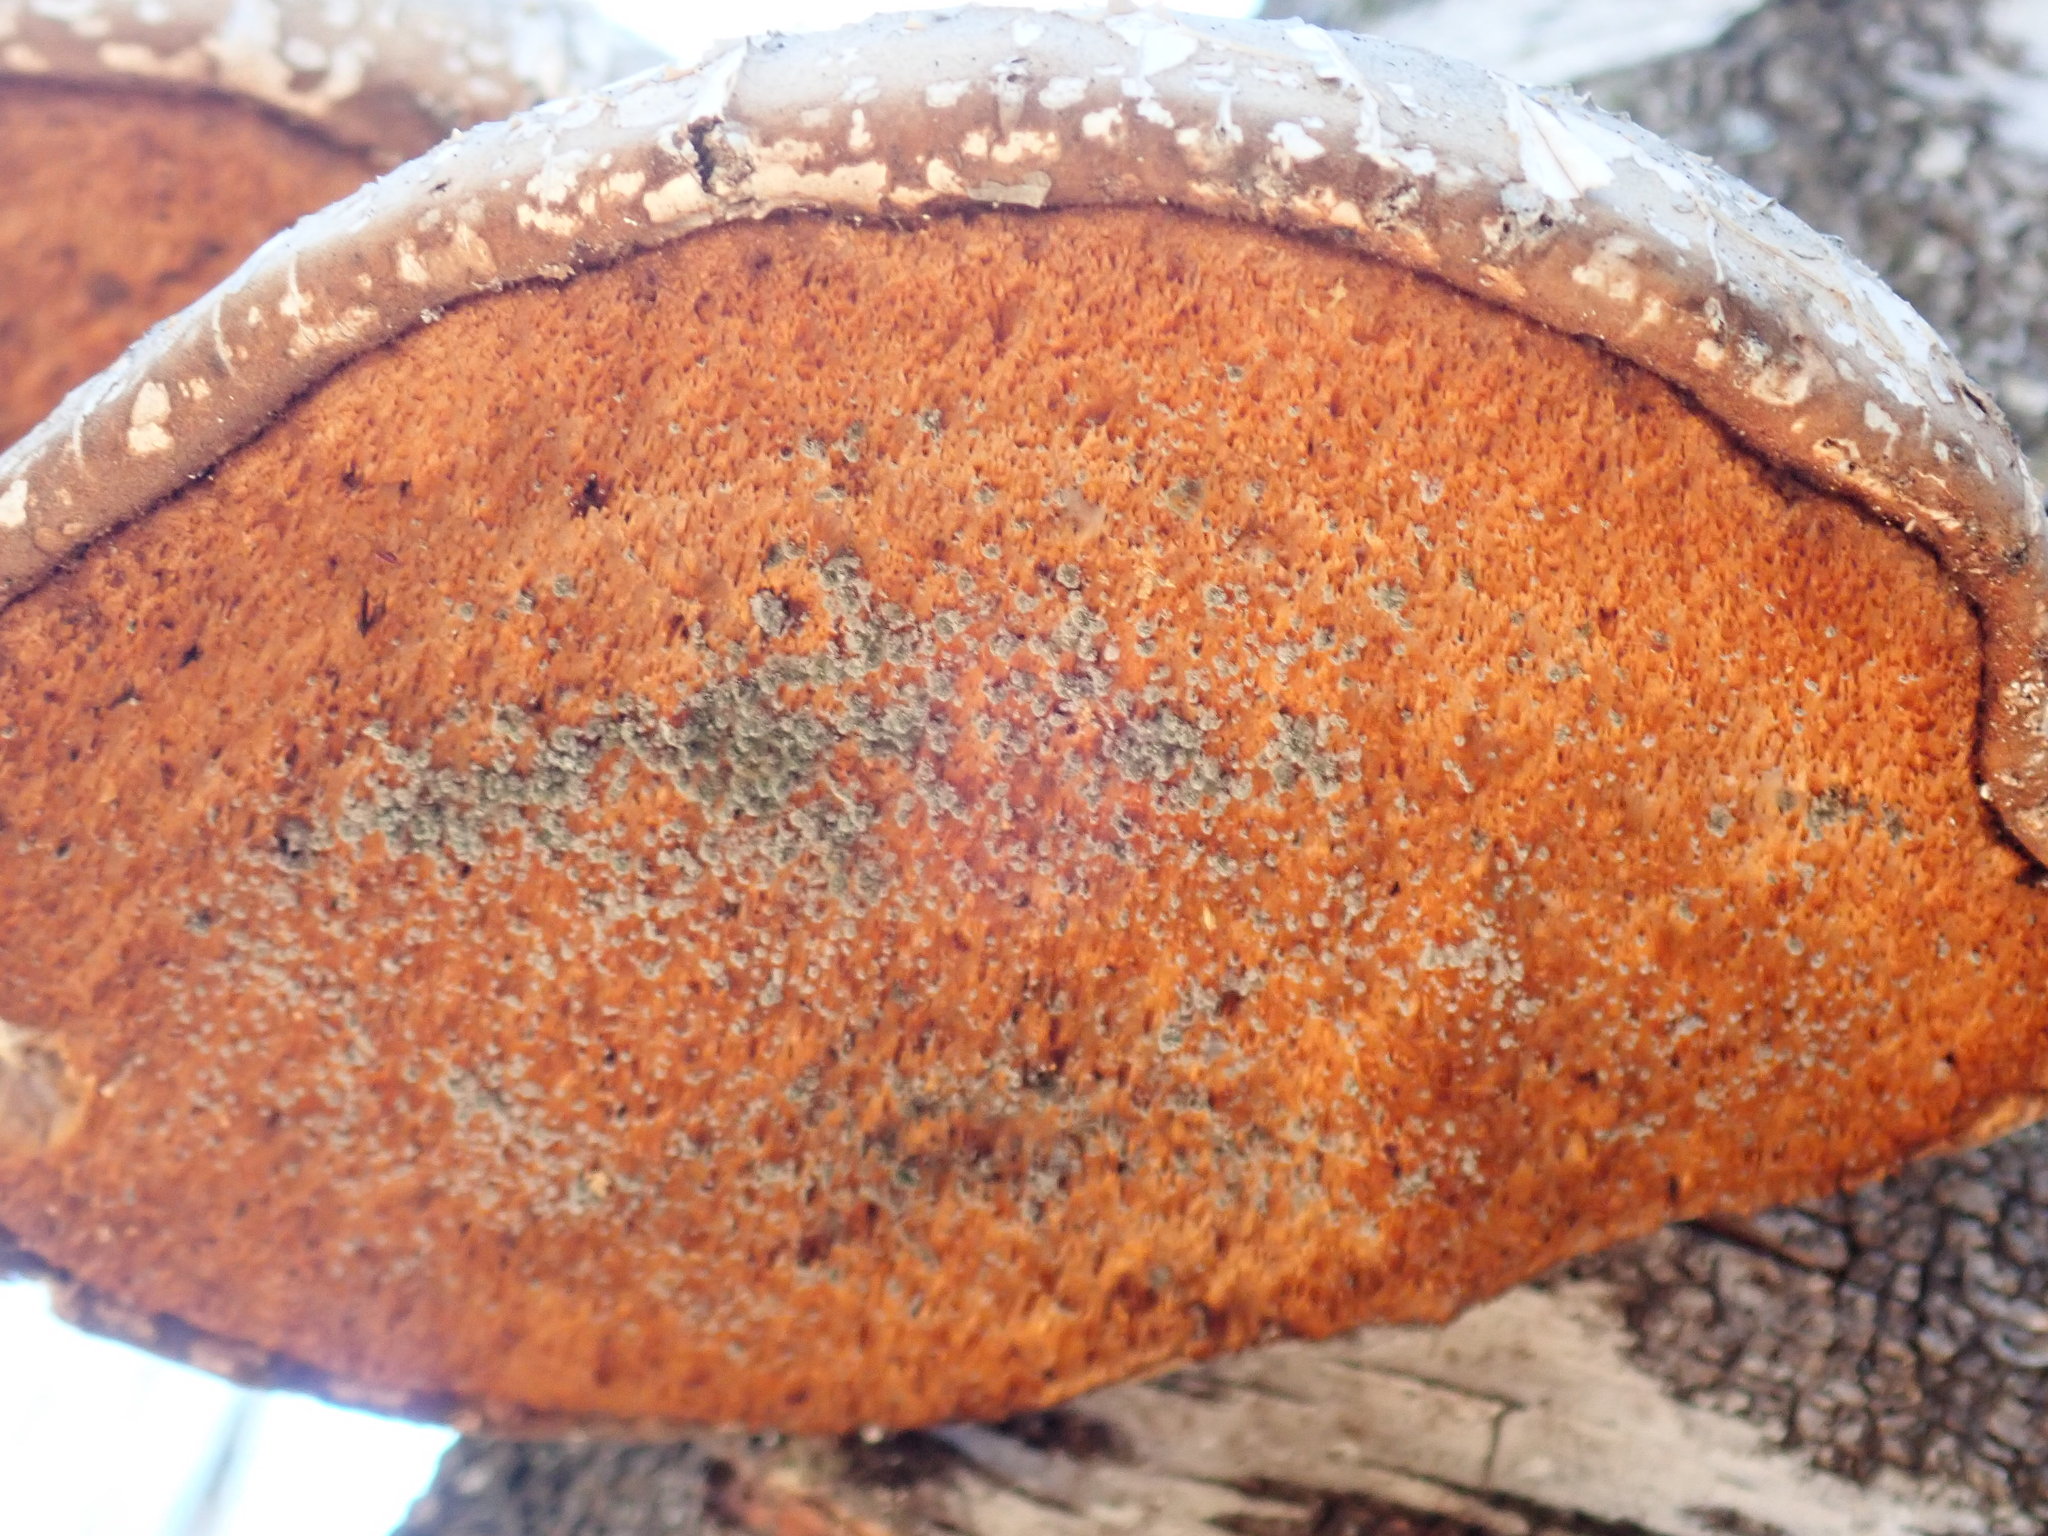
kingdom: Fungi
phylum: Basidiomycota
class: Agaricomycetes
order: Polyporales
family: Fomitopsidaceae
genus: Fomitopsis
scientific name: Fomitopsis betulina
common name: Birch polypore
